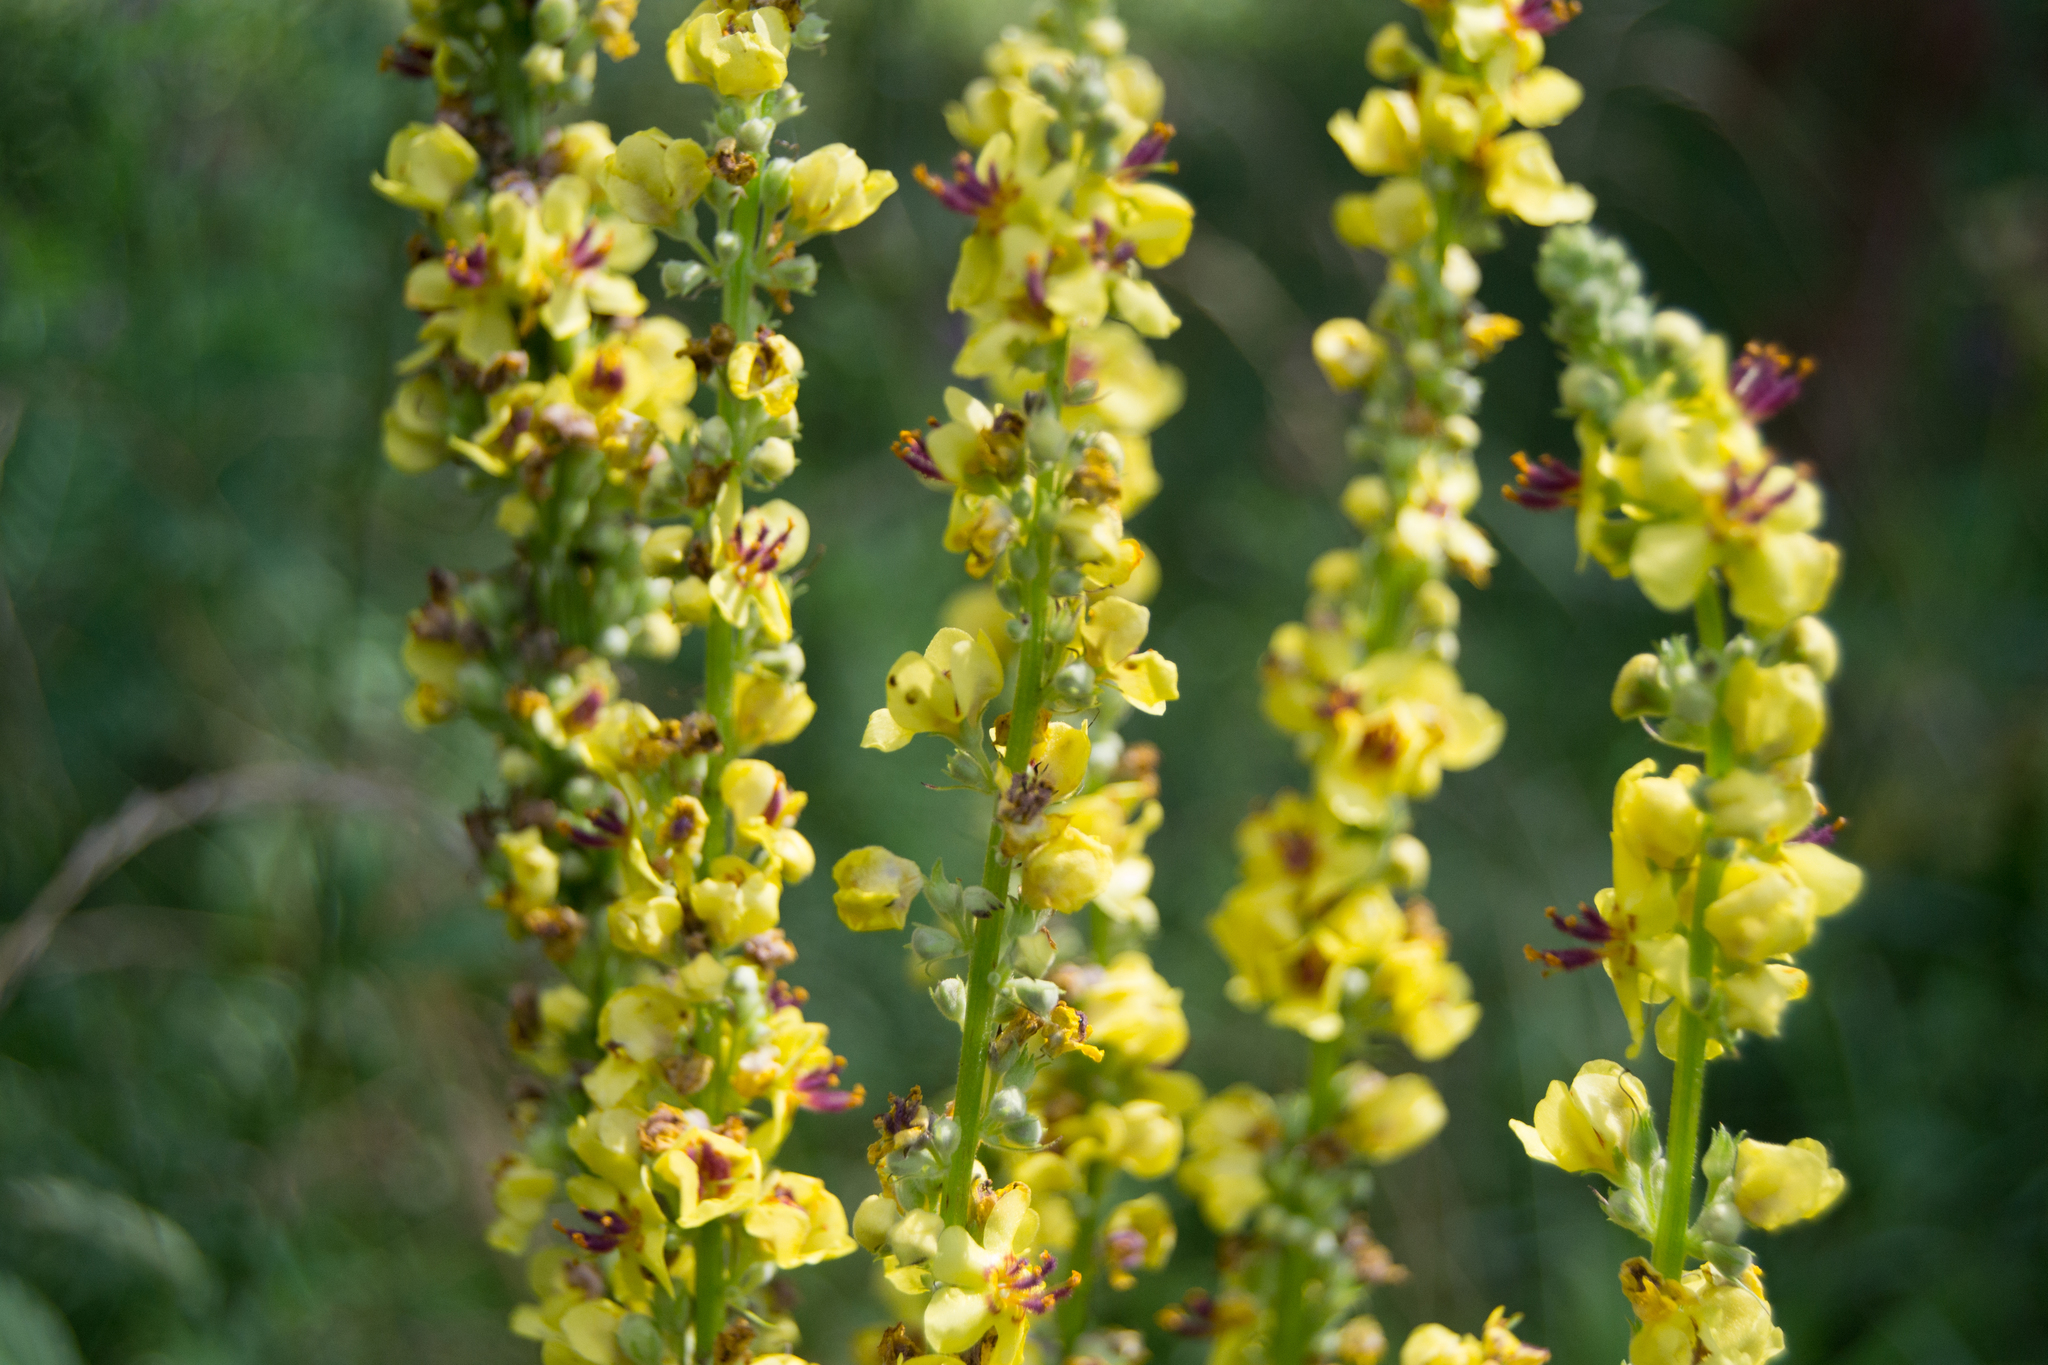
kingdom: Plantae
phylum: Tracheophyta
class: Magnoliopsida
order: Lamiales
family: Scrophulariaceae
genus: Verbascum
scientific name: Verbascum nigrum
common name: Dark mullein
